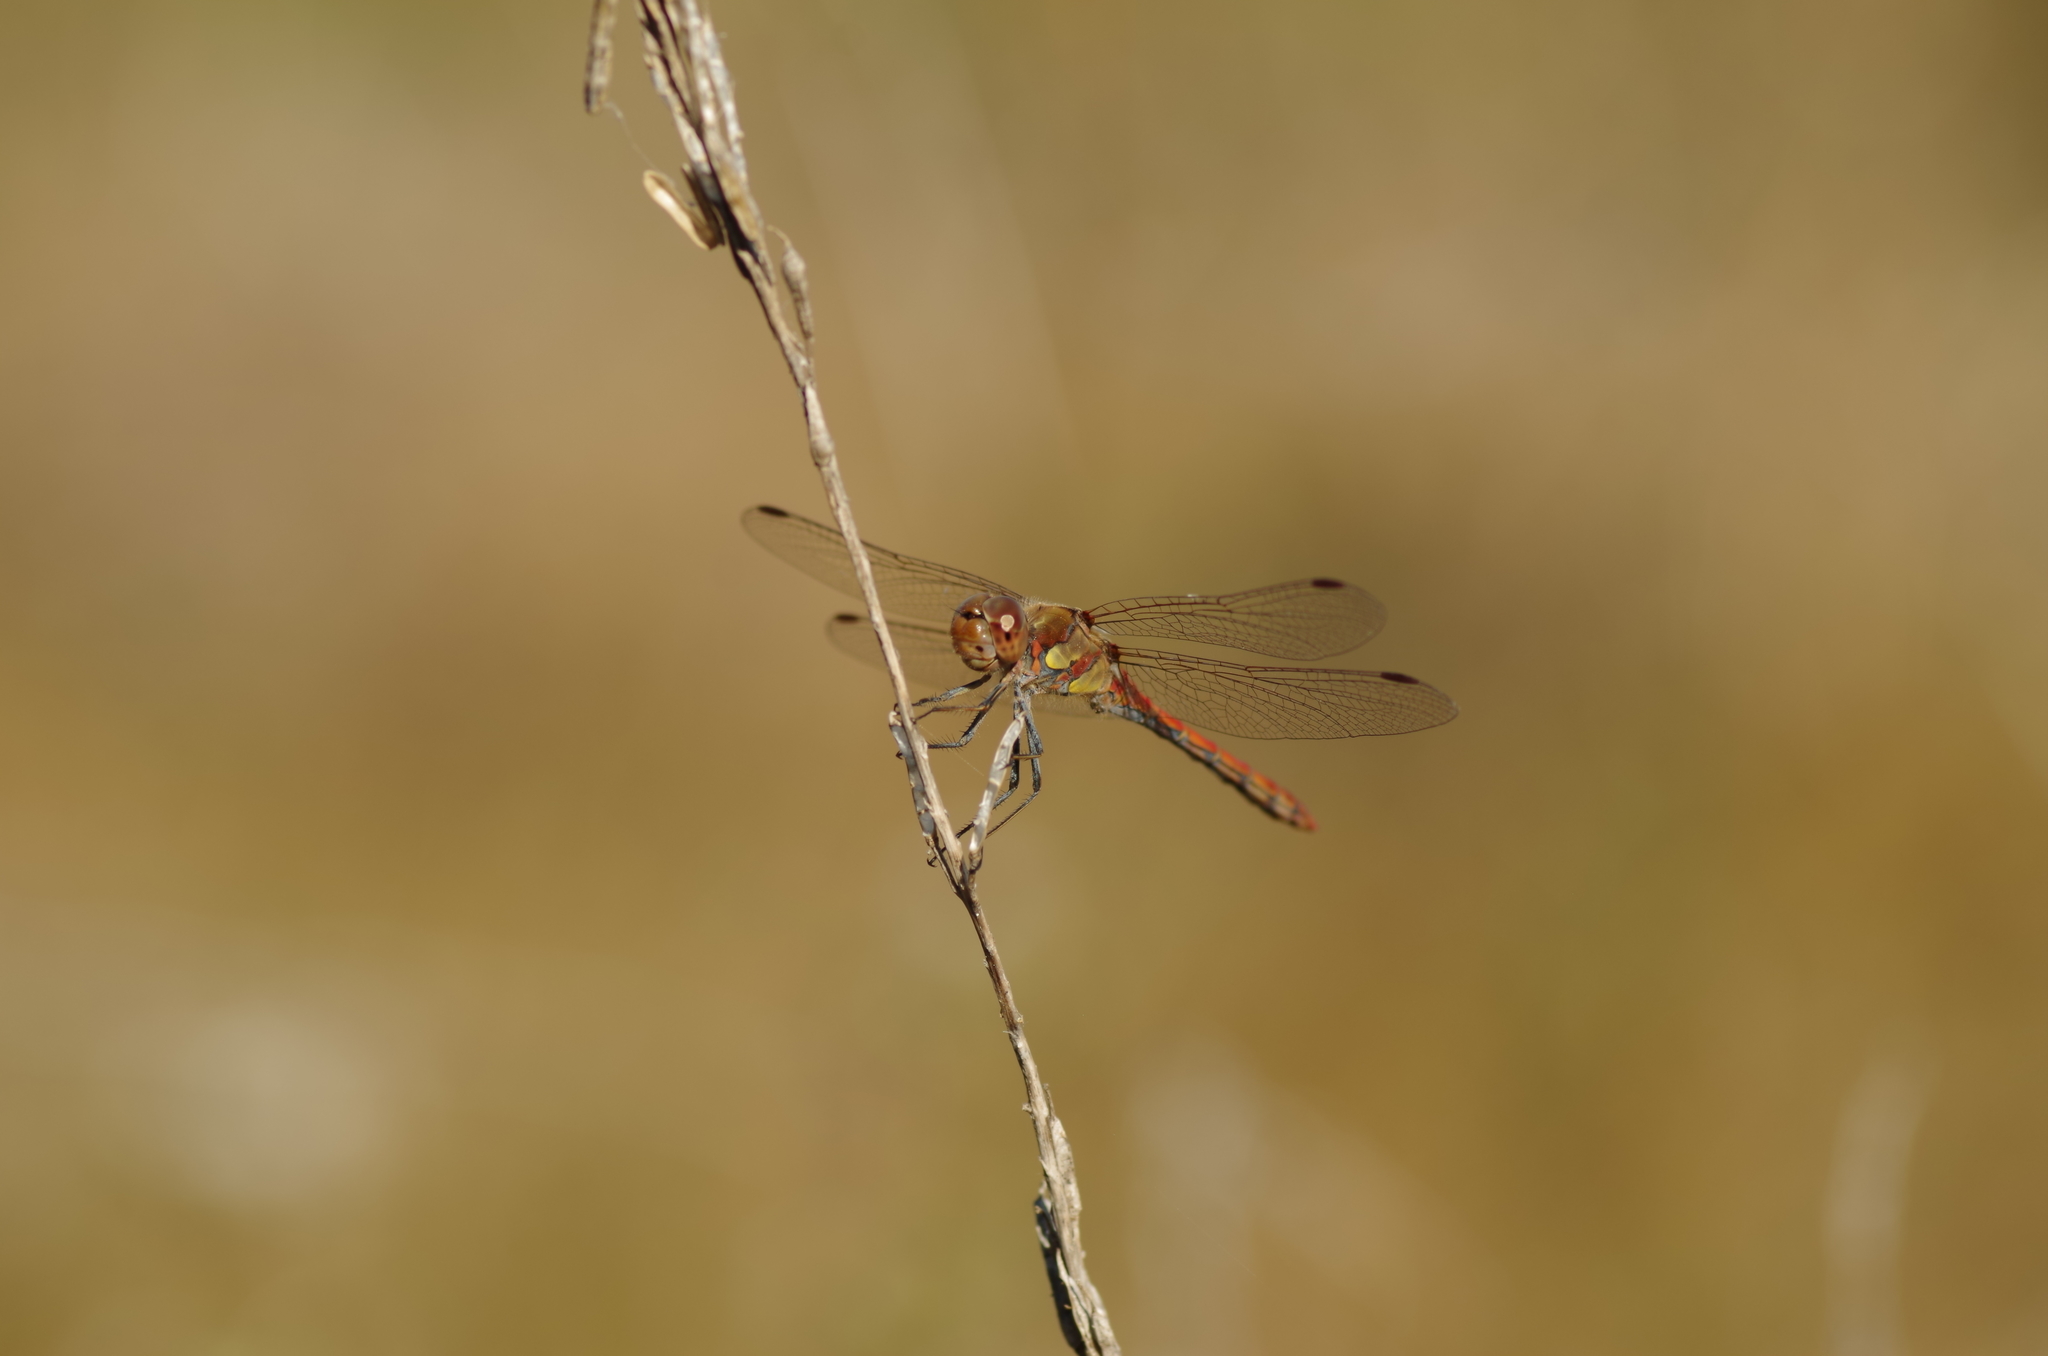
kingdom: Animalia
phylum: Arthropoda
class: Insecta
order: Odonata
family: Libellulidae
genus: Sympetrum
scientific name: Sympetrum striolatum
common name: Common darter
